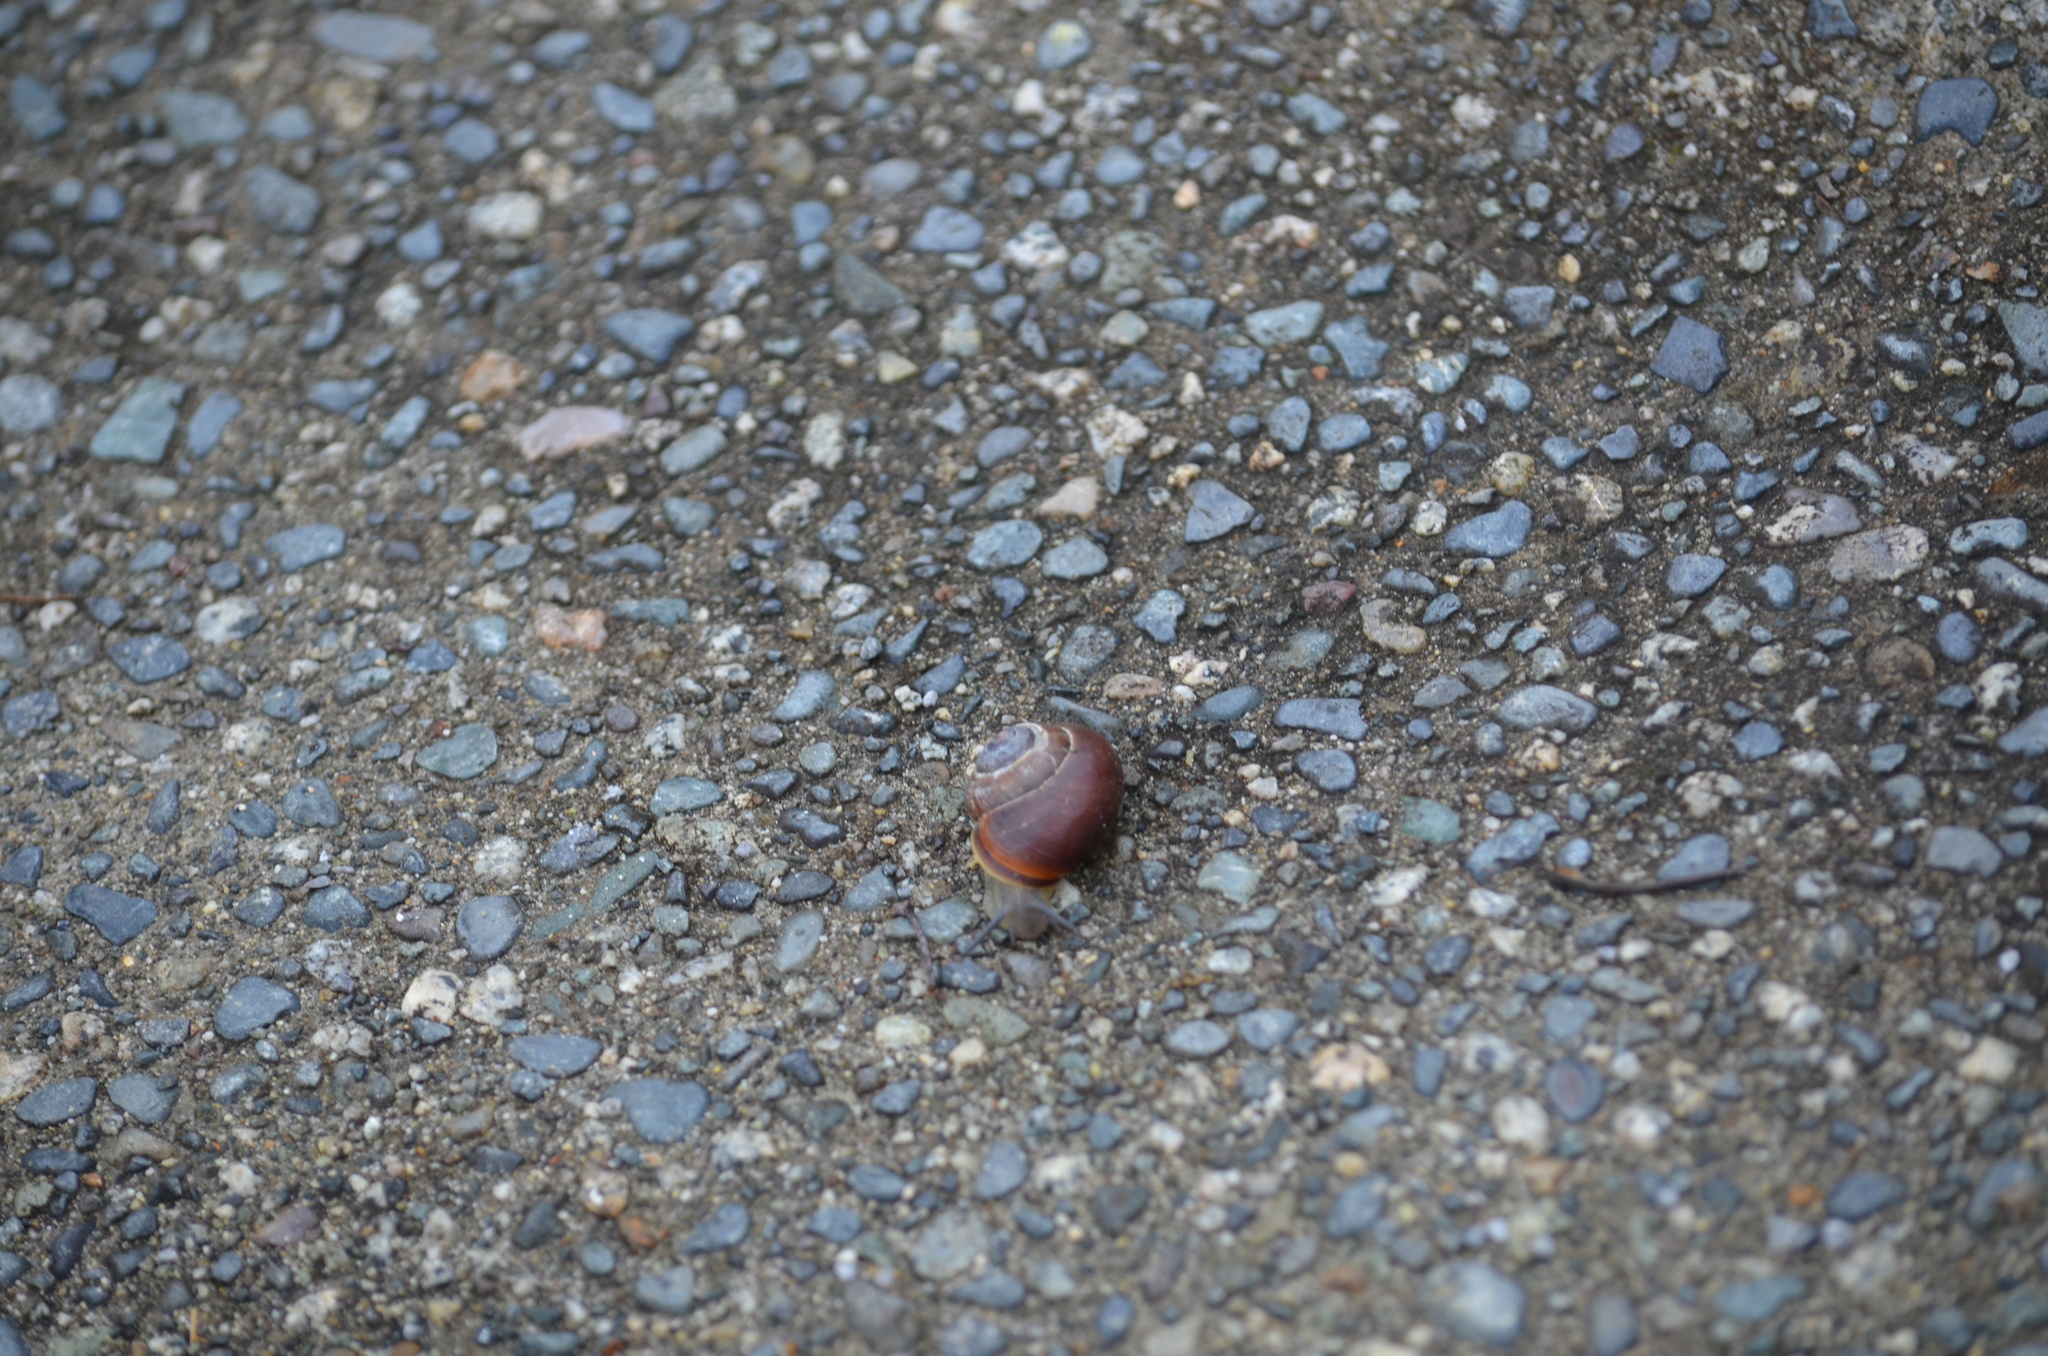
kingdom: Animalia
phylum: Mollusca
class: Gastropoda
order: Stylommatophora
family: Helicidae
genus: Cepaea
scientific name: Cepaea nemoralis
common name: Grovesnail
